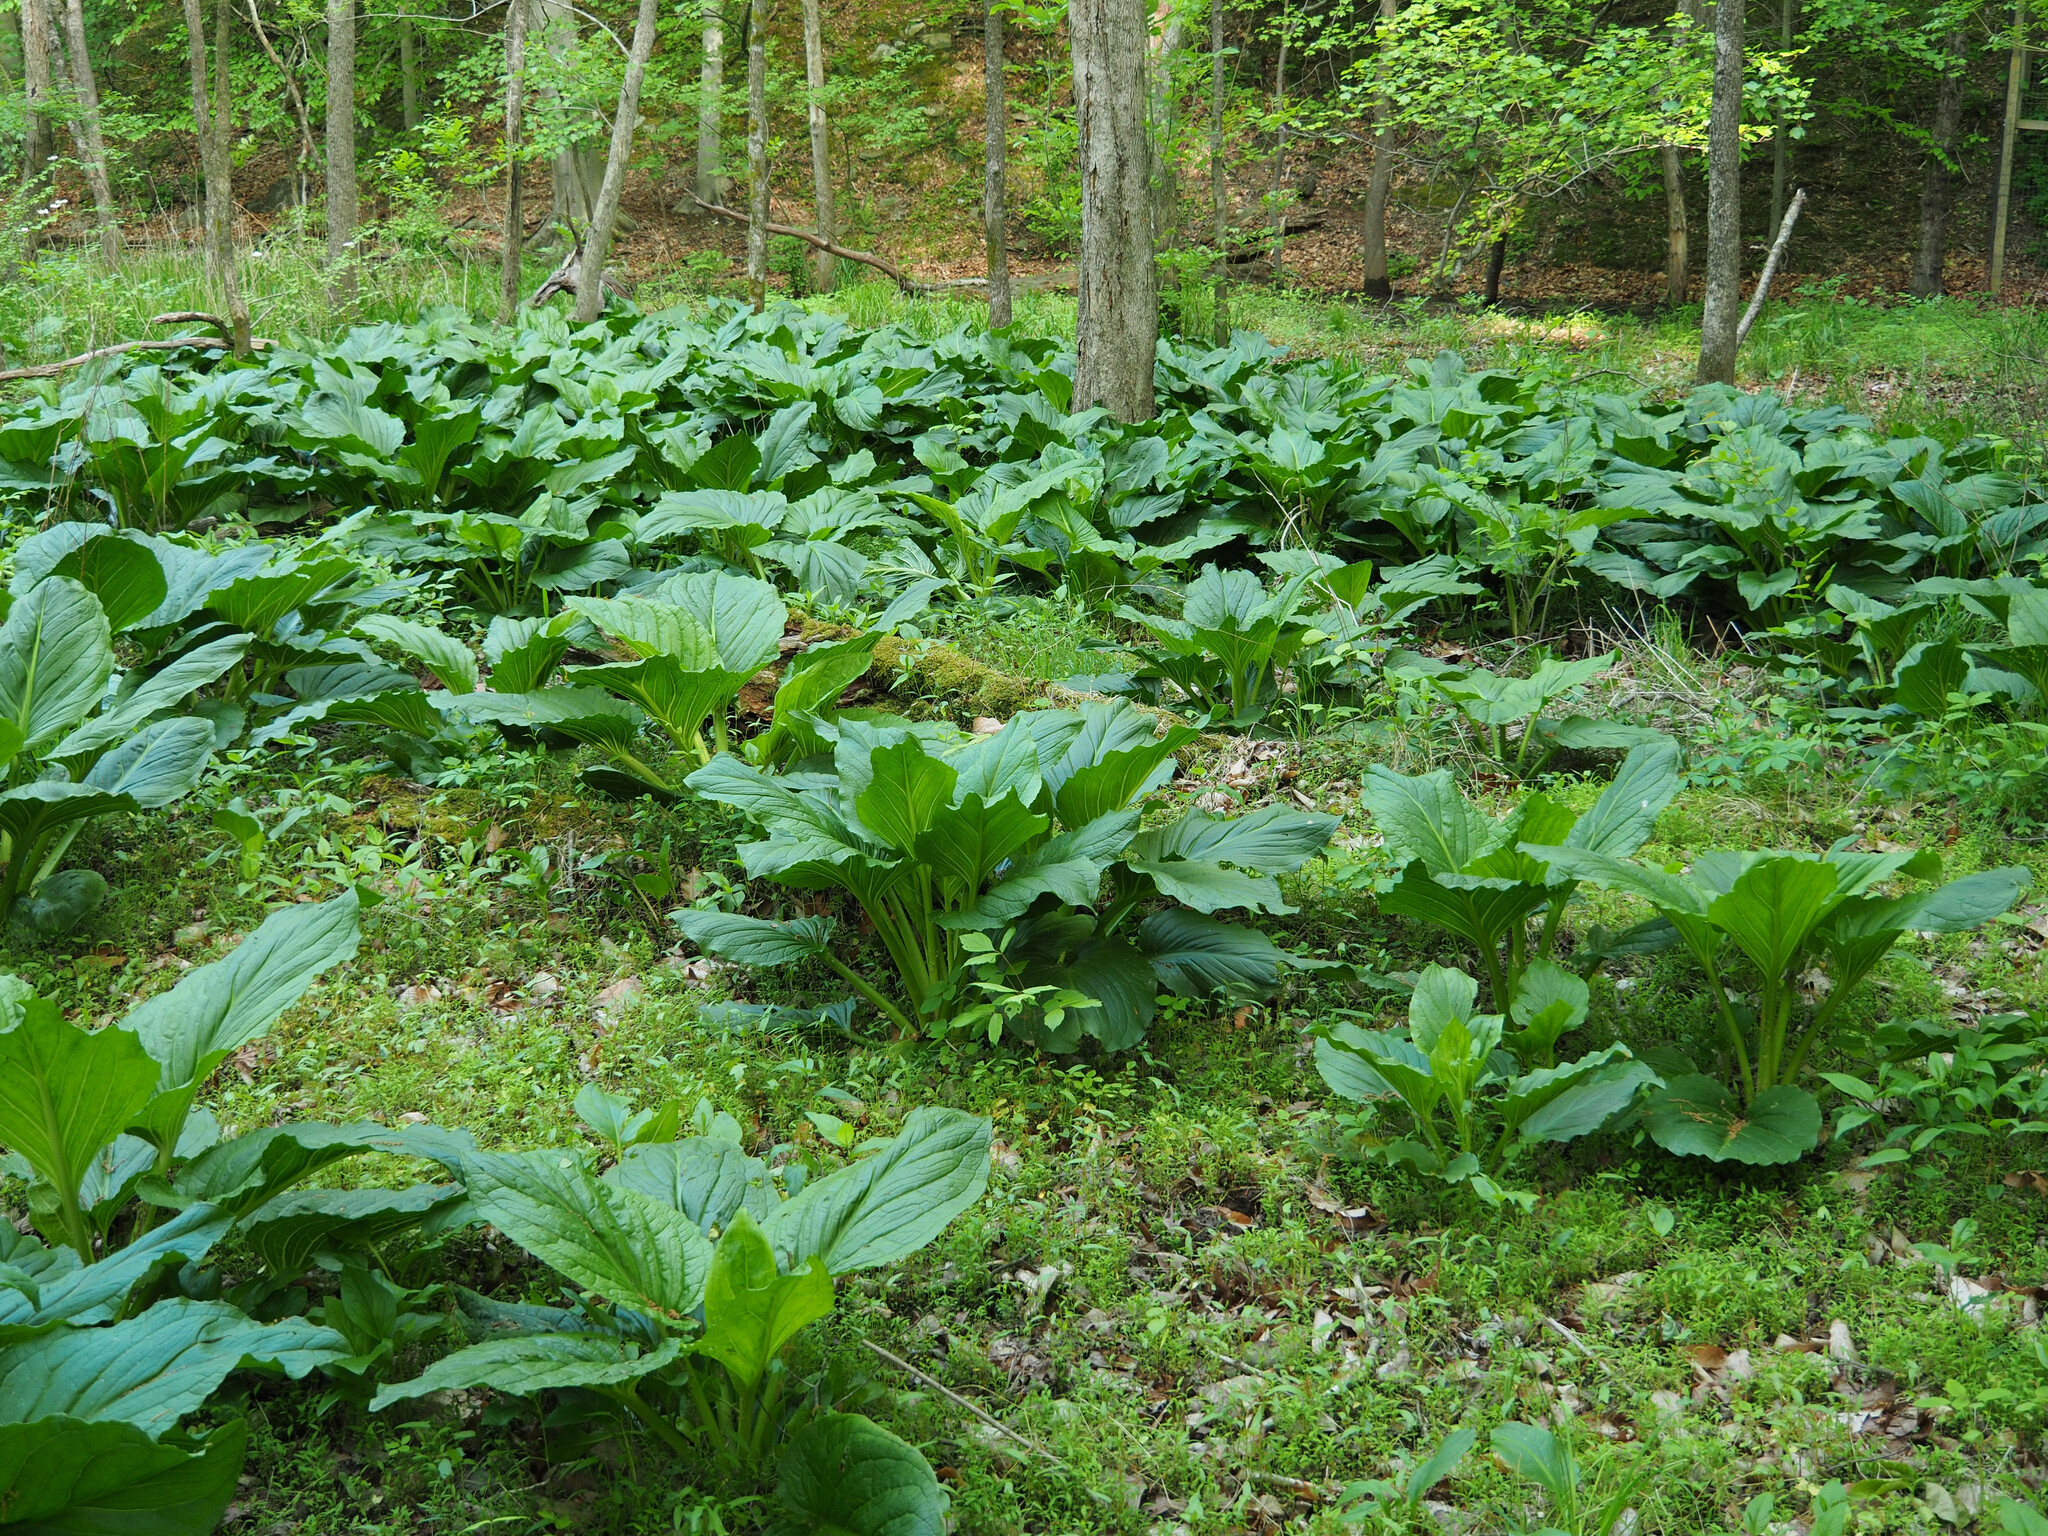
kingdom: Plantae
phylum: Tracheophyta
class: Liliopsida
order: Alismatales
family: Araceae
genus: Symplocarpus
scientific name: Symplocarpus foetidus
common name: Eastern skunk cabbage
